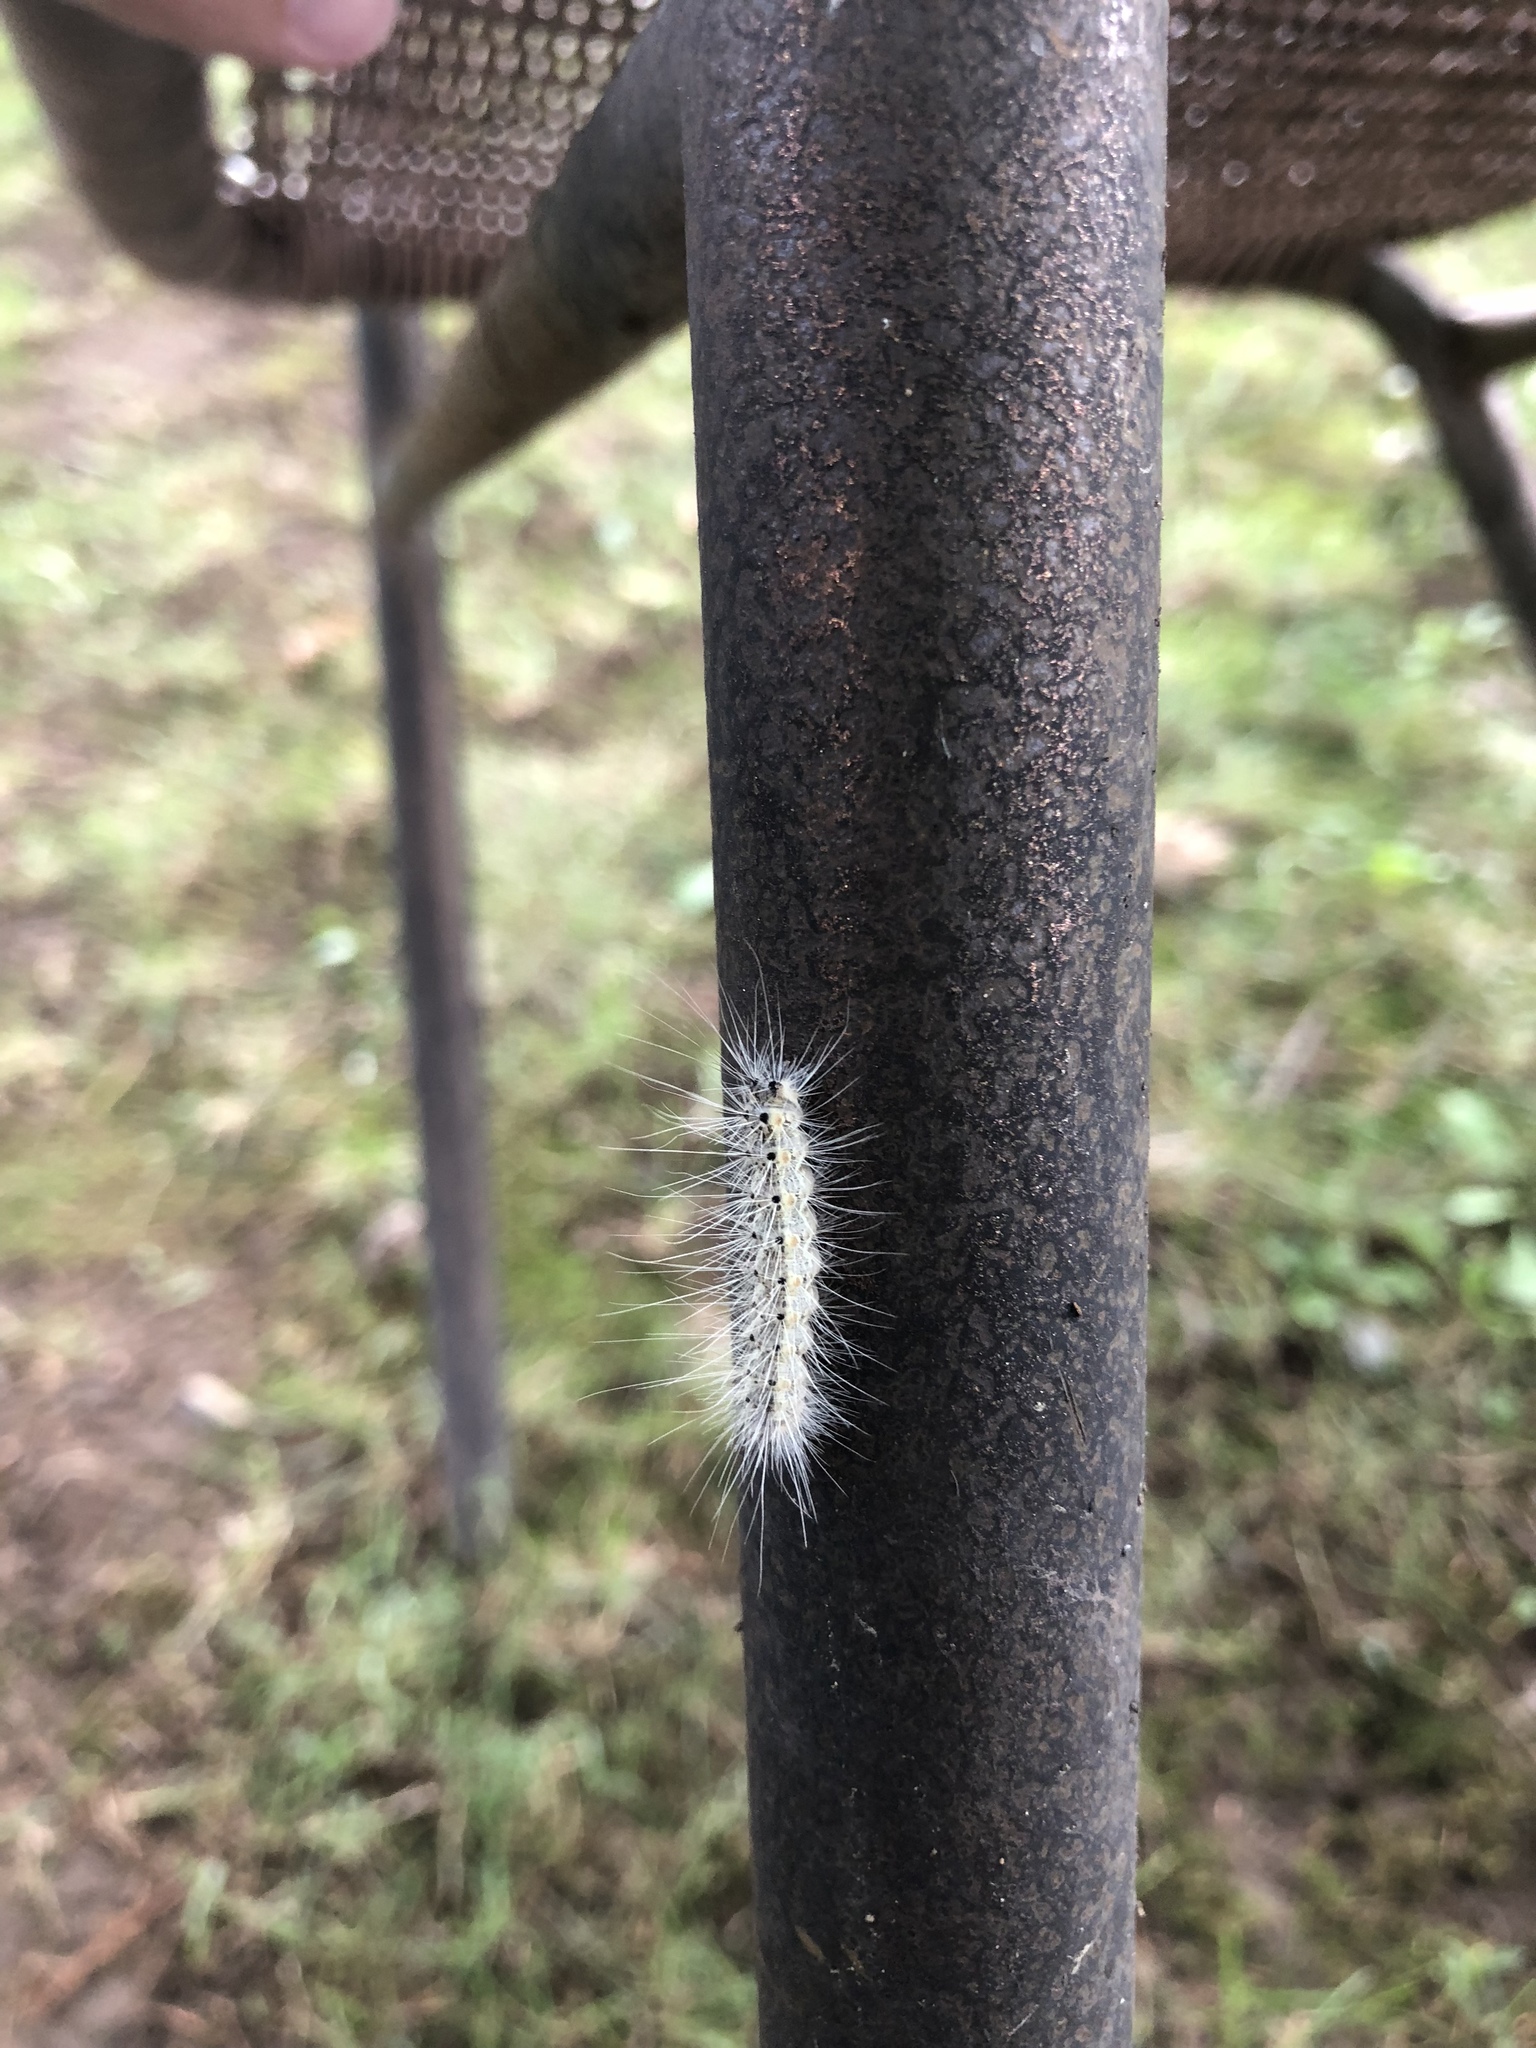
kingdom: Animalia
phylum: Arthropoda
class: Insecta
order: Lepidoptera
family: Erebidae
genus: Hyphantria
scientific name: Hyphantria cunea
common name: American white moth
